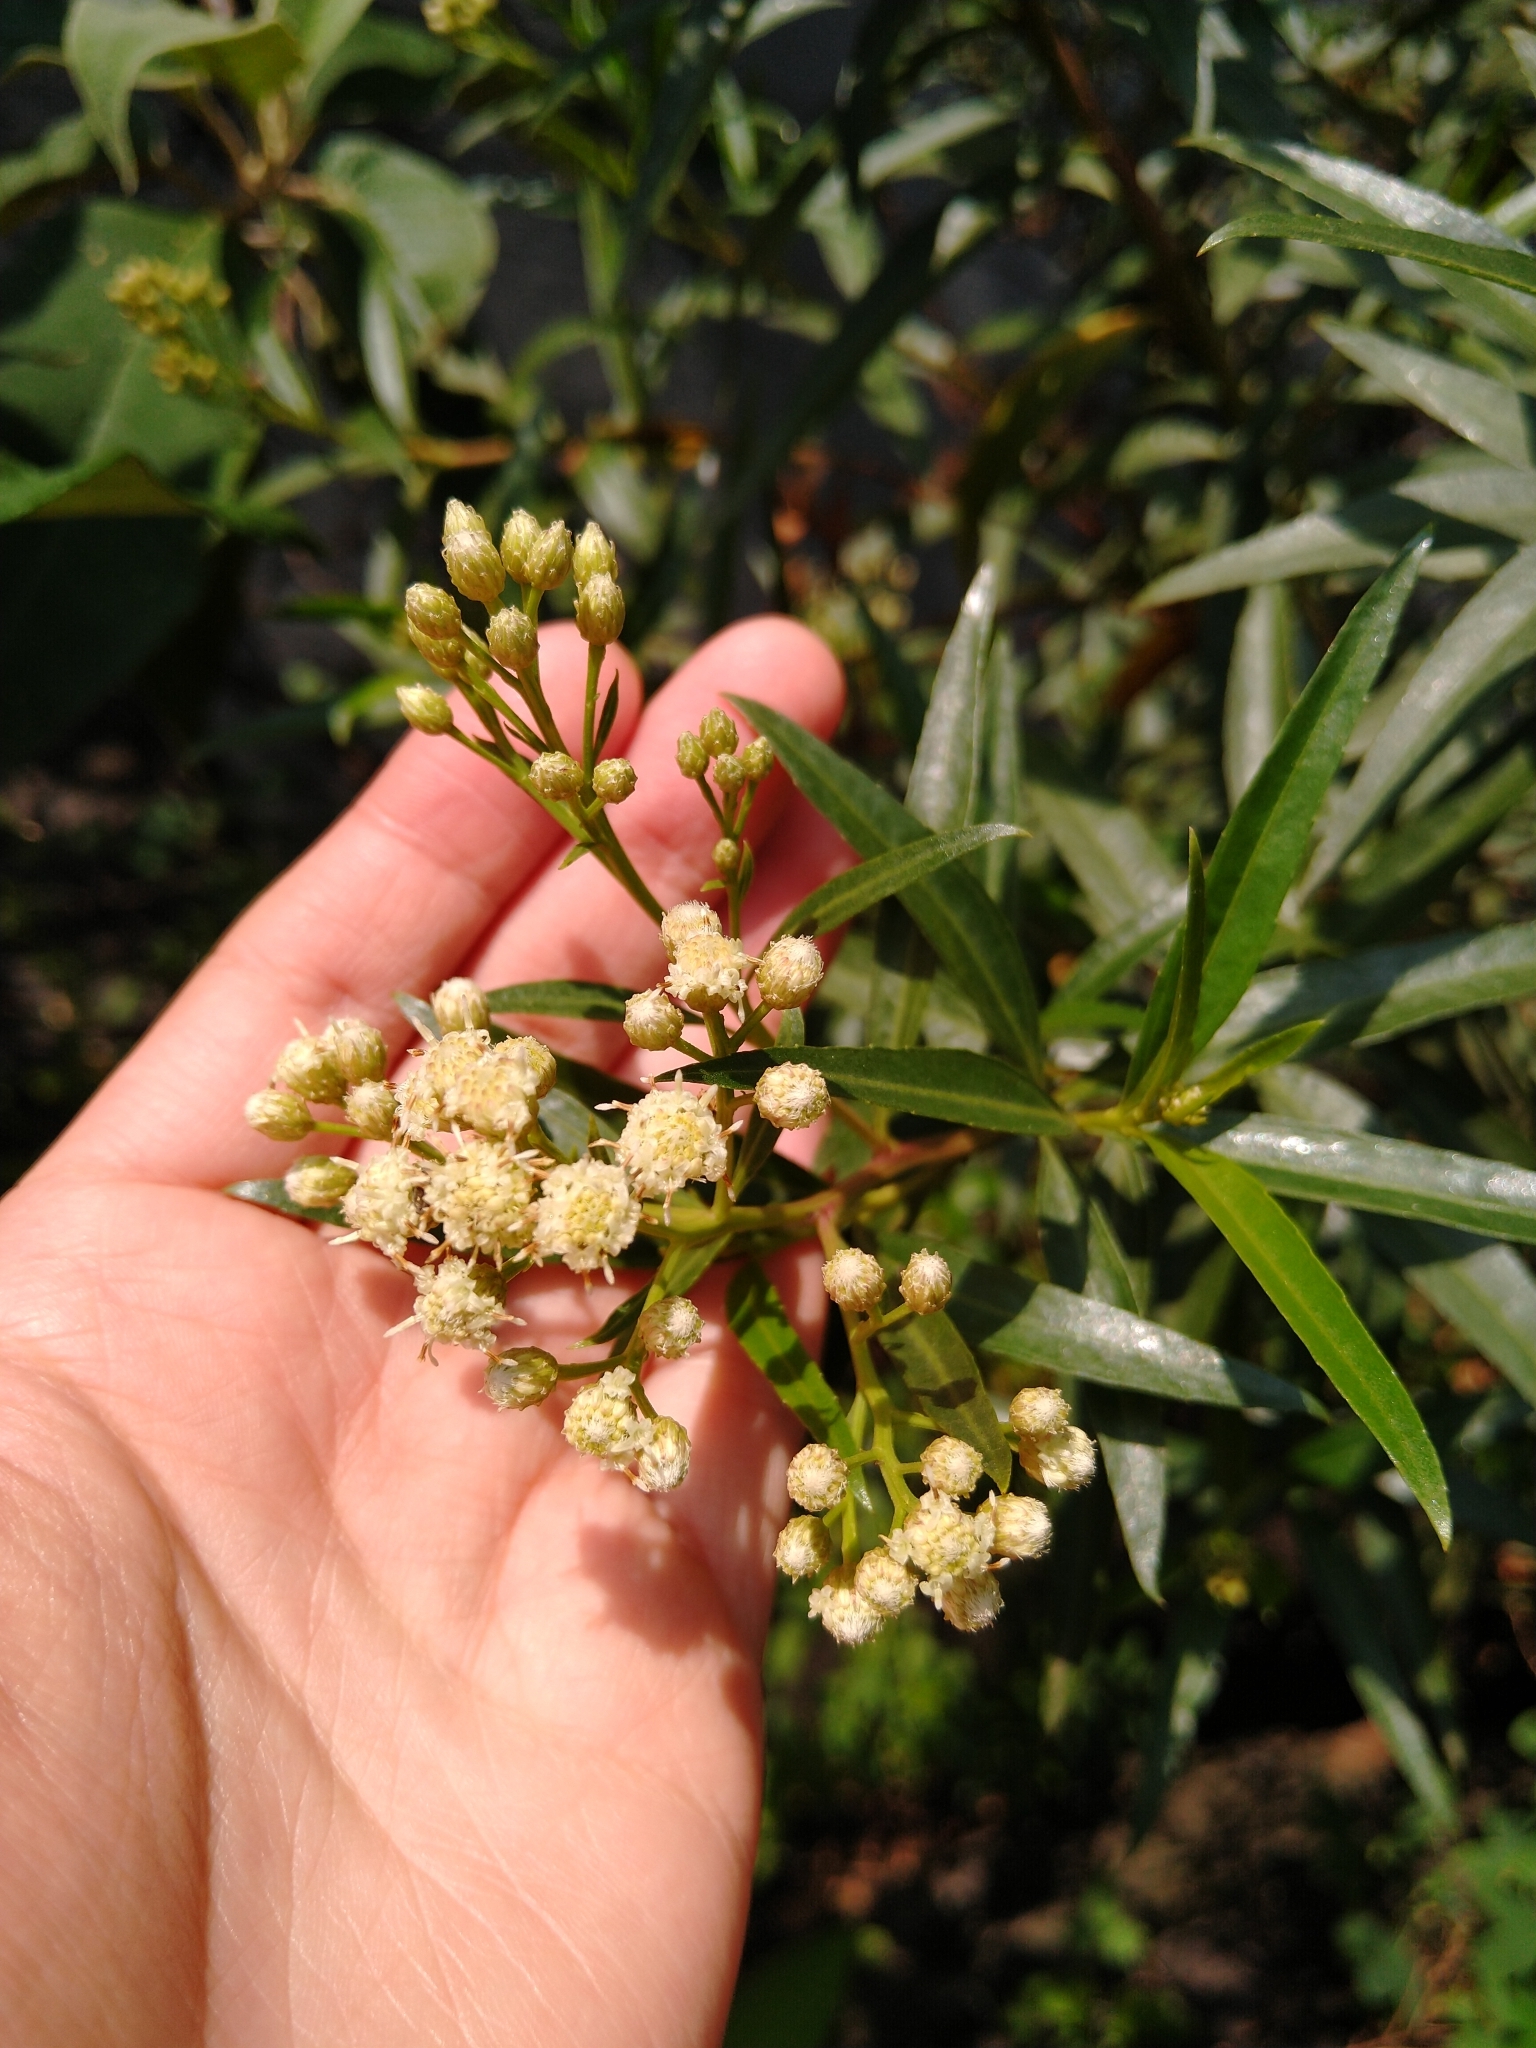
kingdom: Plantae
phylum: Tracheophyta
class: Magnoliopsida
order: Asterales
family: Asteraceae
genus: Baccharis
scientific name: Baccharis salicifolia
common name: Sticky baccharis
